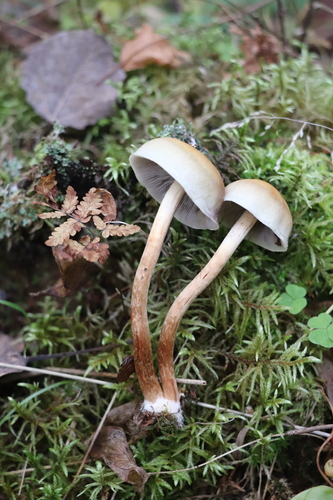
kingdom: Fungi
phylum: Basidiomycota
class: Agaricomycetes
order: Agaricales
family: Strophariaceae
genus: Hypholoma
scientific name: Hypholoma capnoides
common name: Conifer tuft
